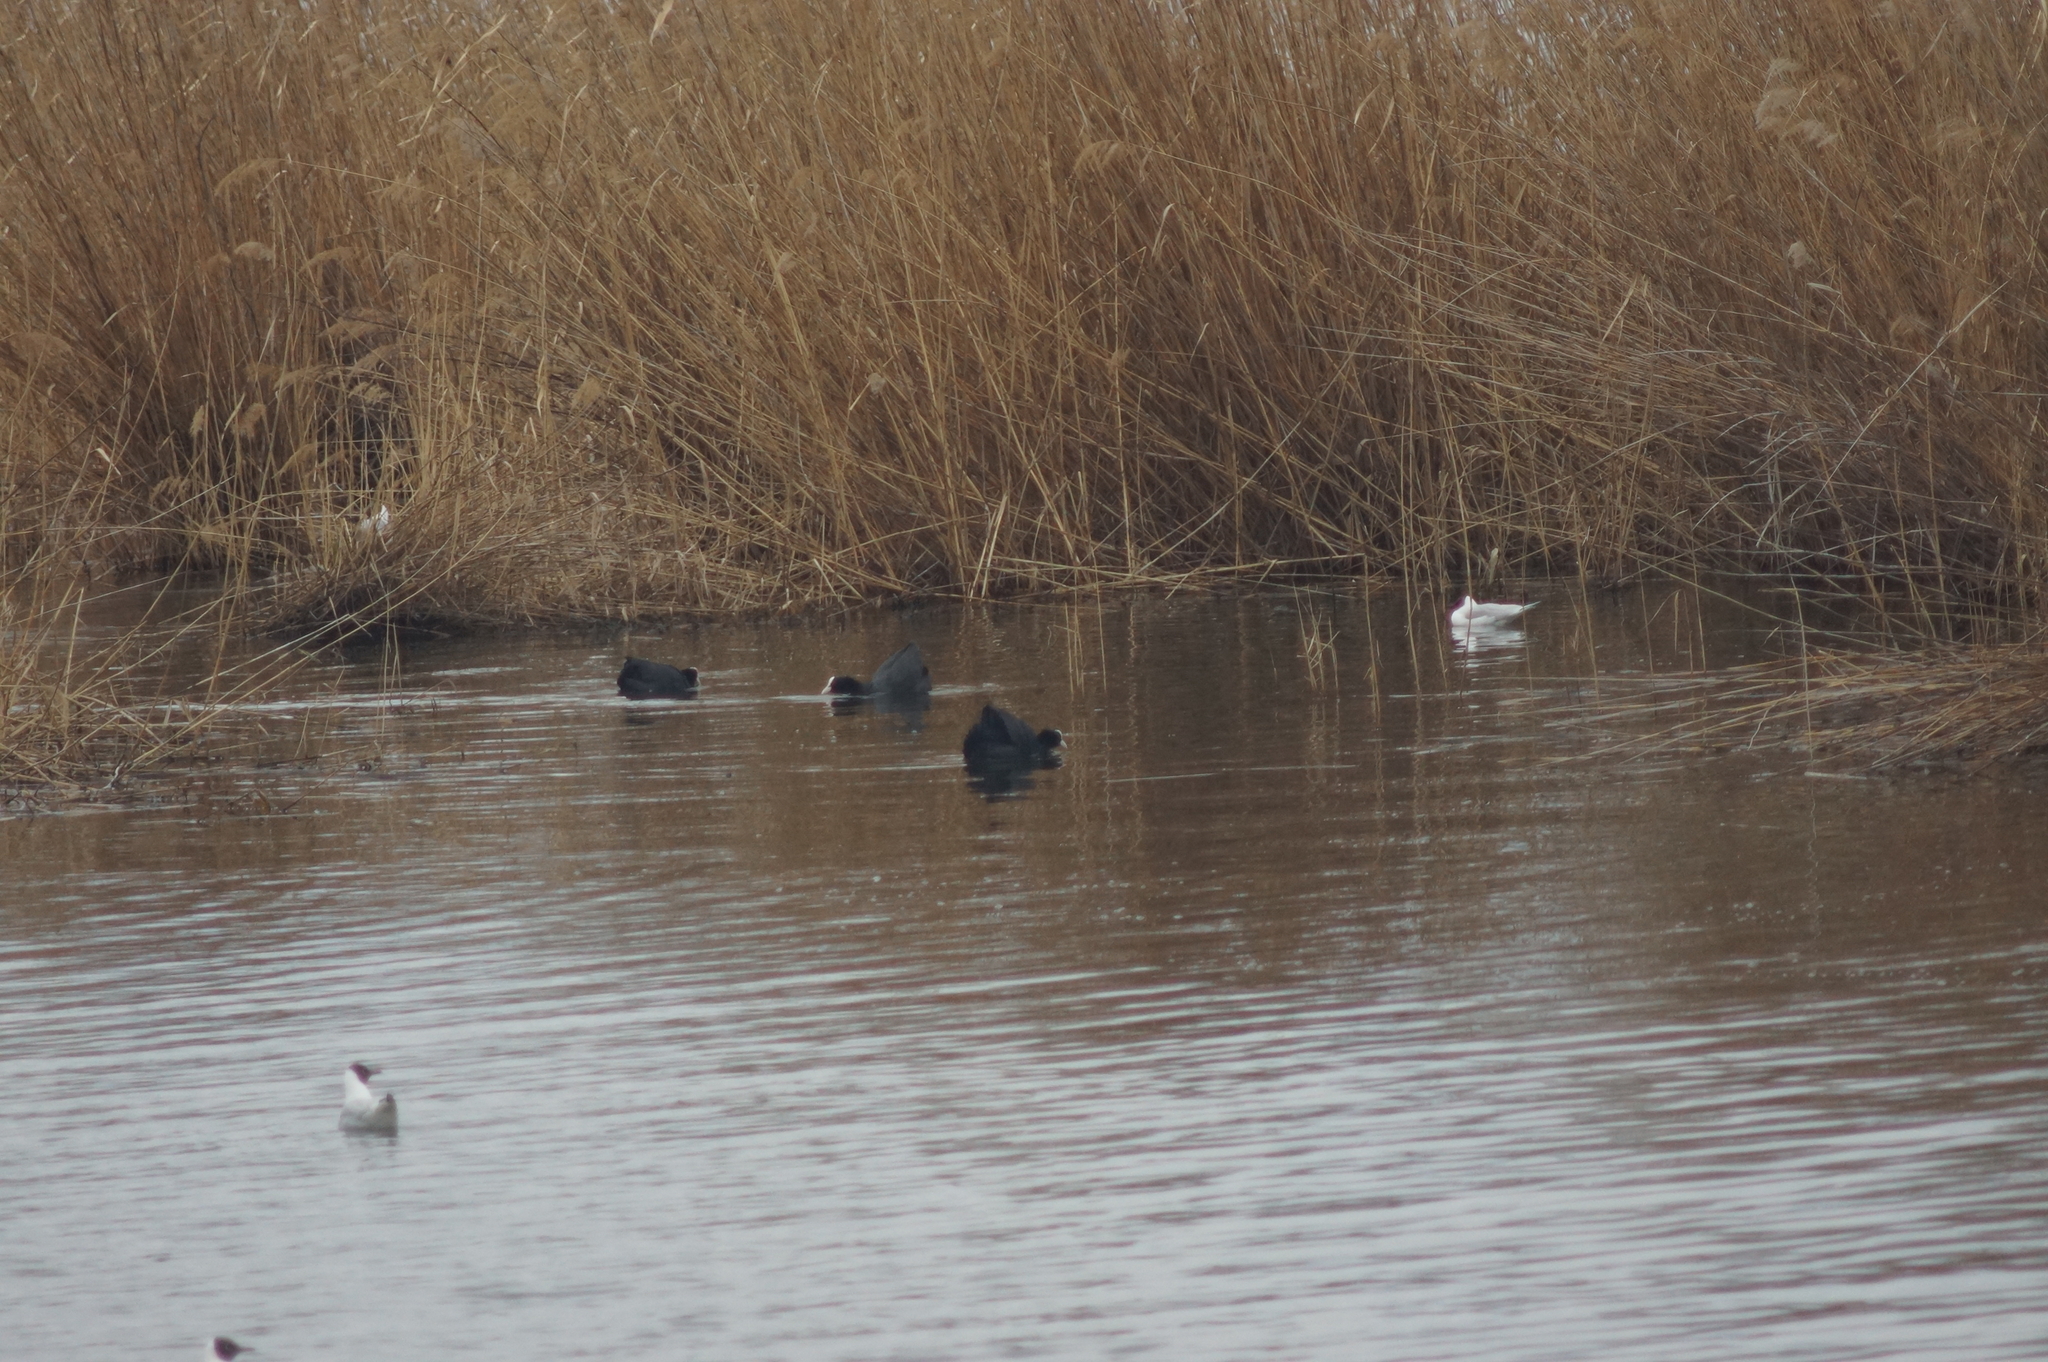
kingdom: Animalia
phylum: Chordata
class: Aves
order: Gruiformes
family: Rallidae
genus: Fulica
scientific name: Fulica atra
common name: Eurasian coot
